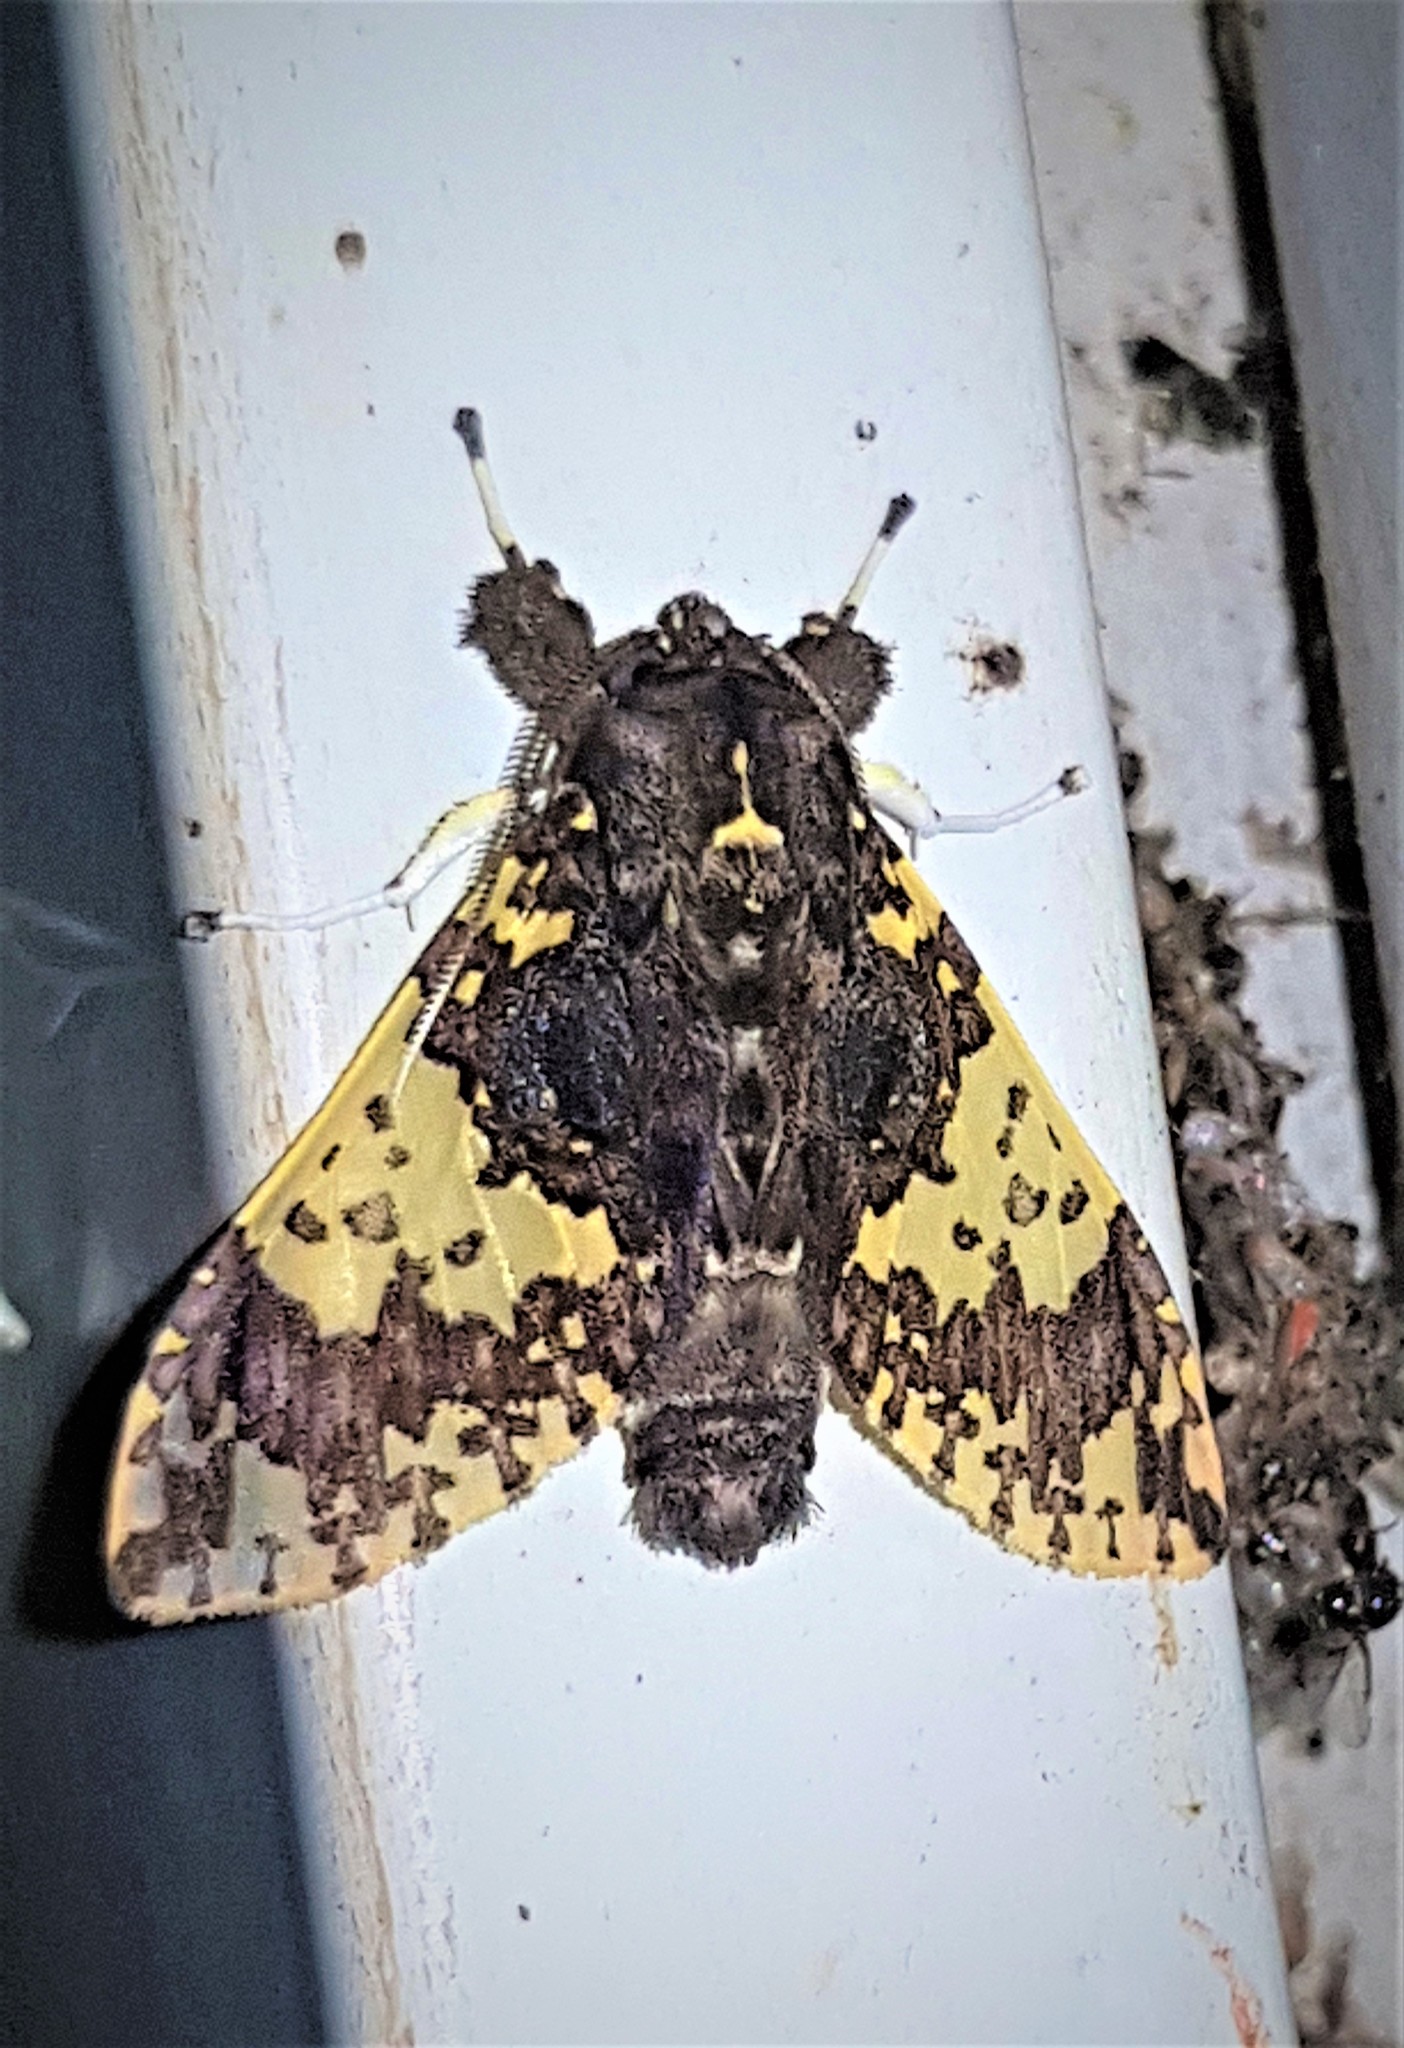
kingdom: Animalia
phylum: Arthropoda
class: Insecta
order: Lepidoptera
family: Erebidae
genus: Amaxia
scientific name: Amaxia reticulata
